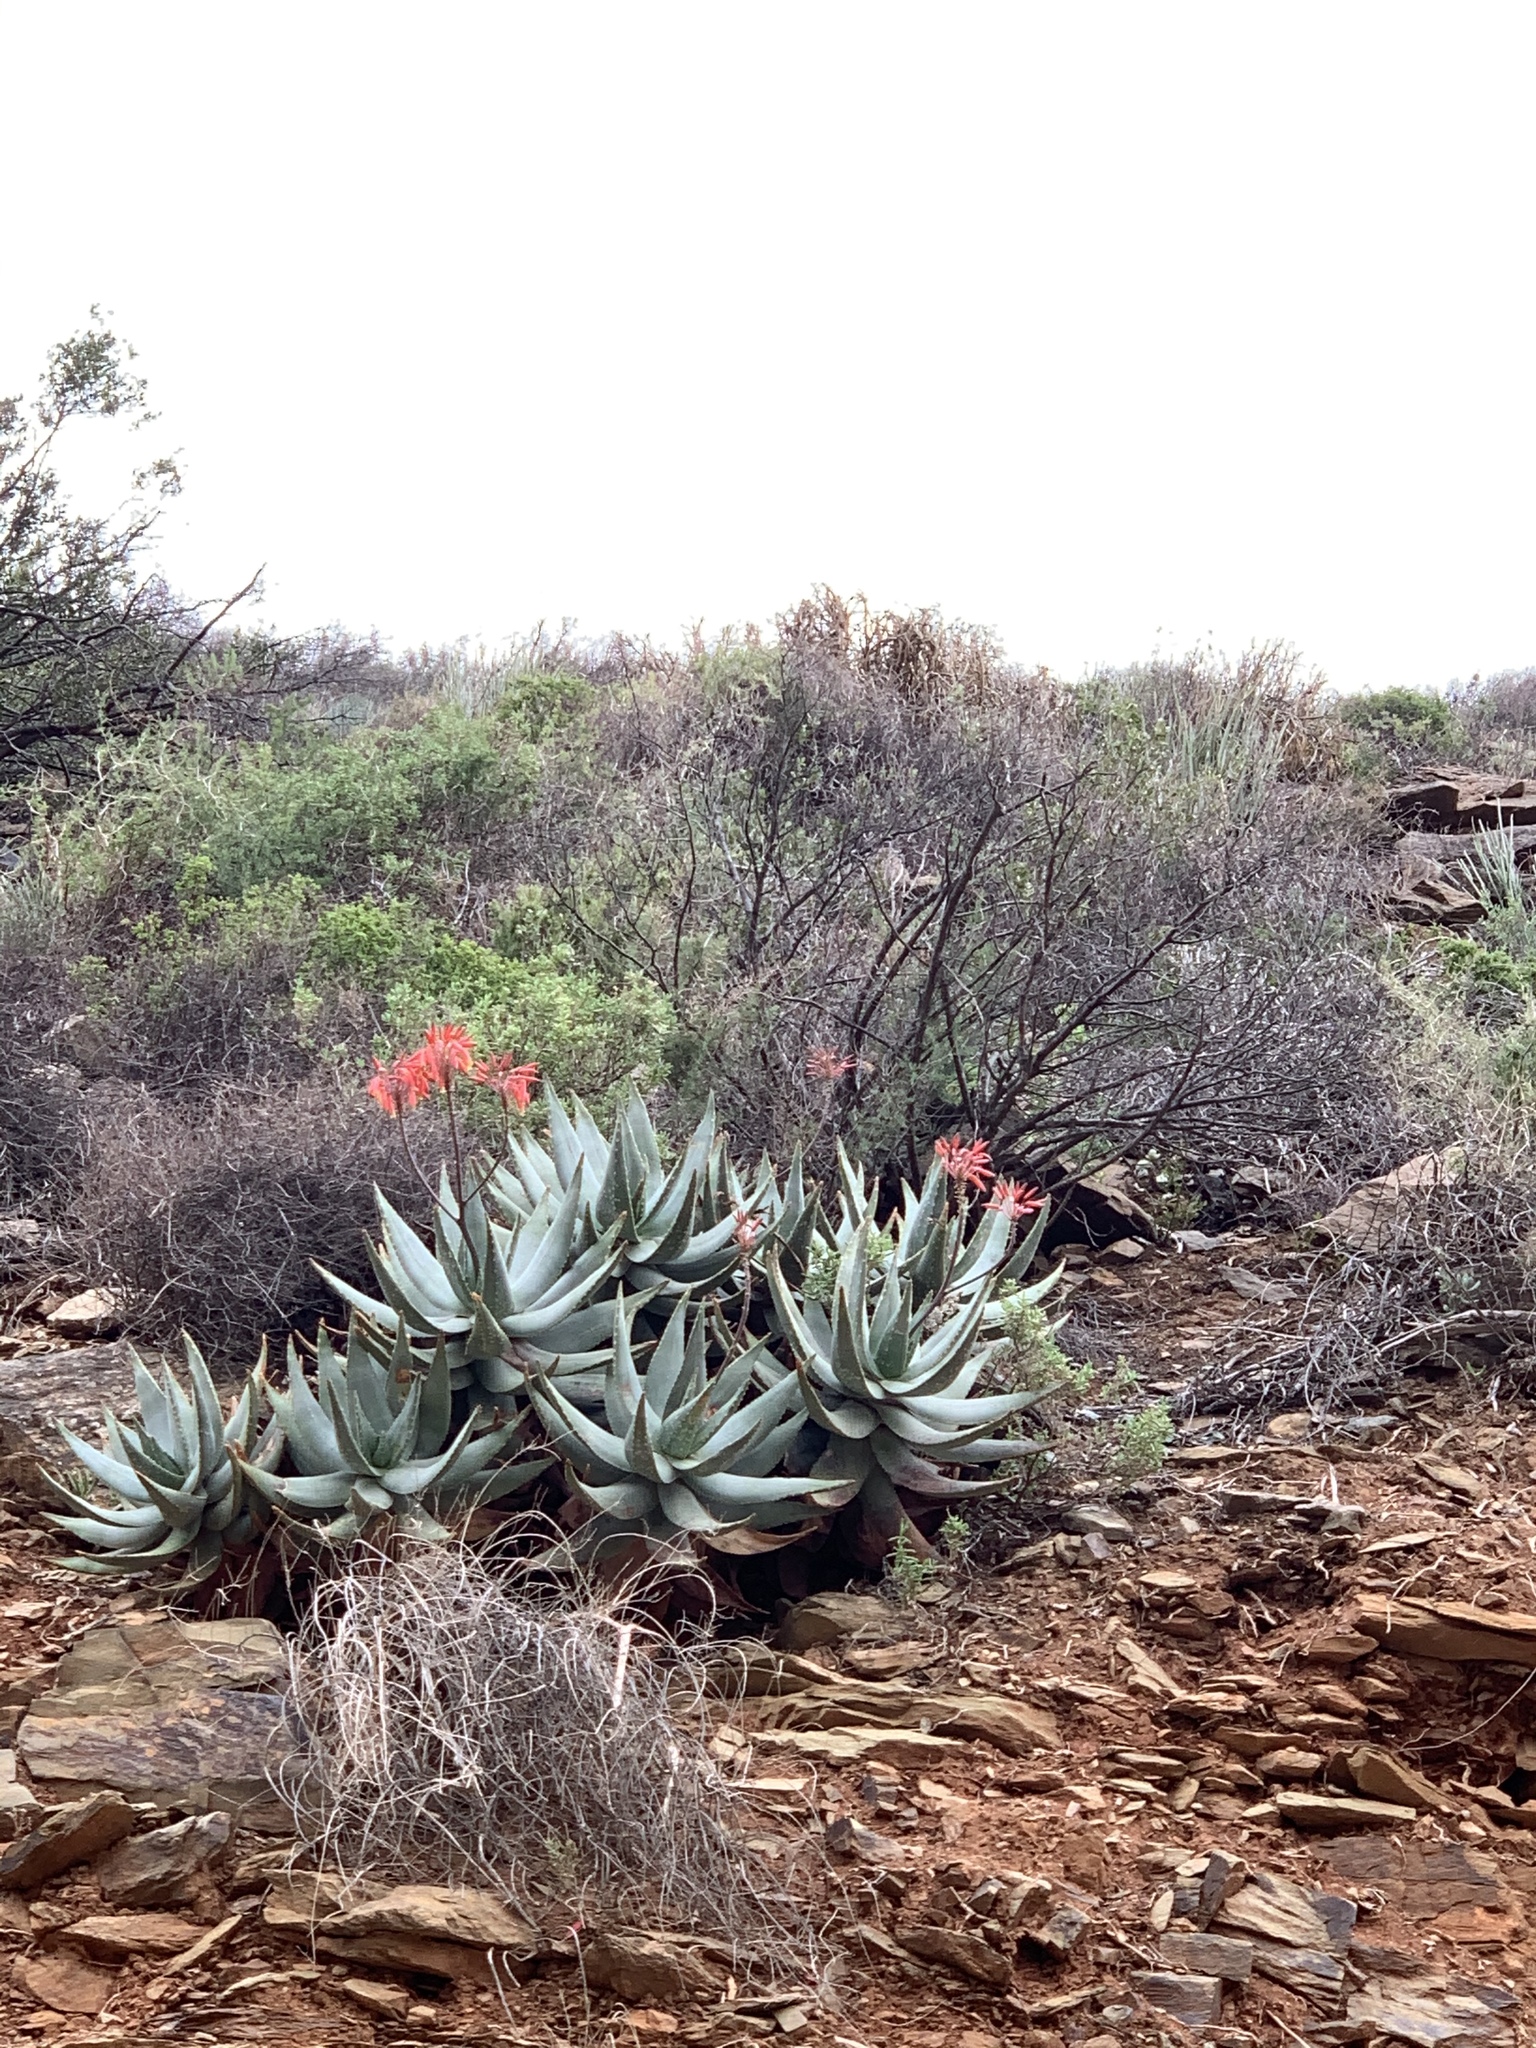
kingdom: Plantae
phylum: Tracheophyta
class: Liliopsida
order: Asparagales
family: Asphodelaceae
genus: Aloe
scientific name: Aloe comptonii
